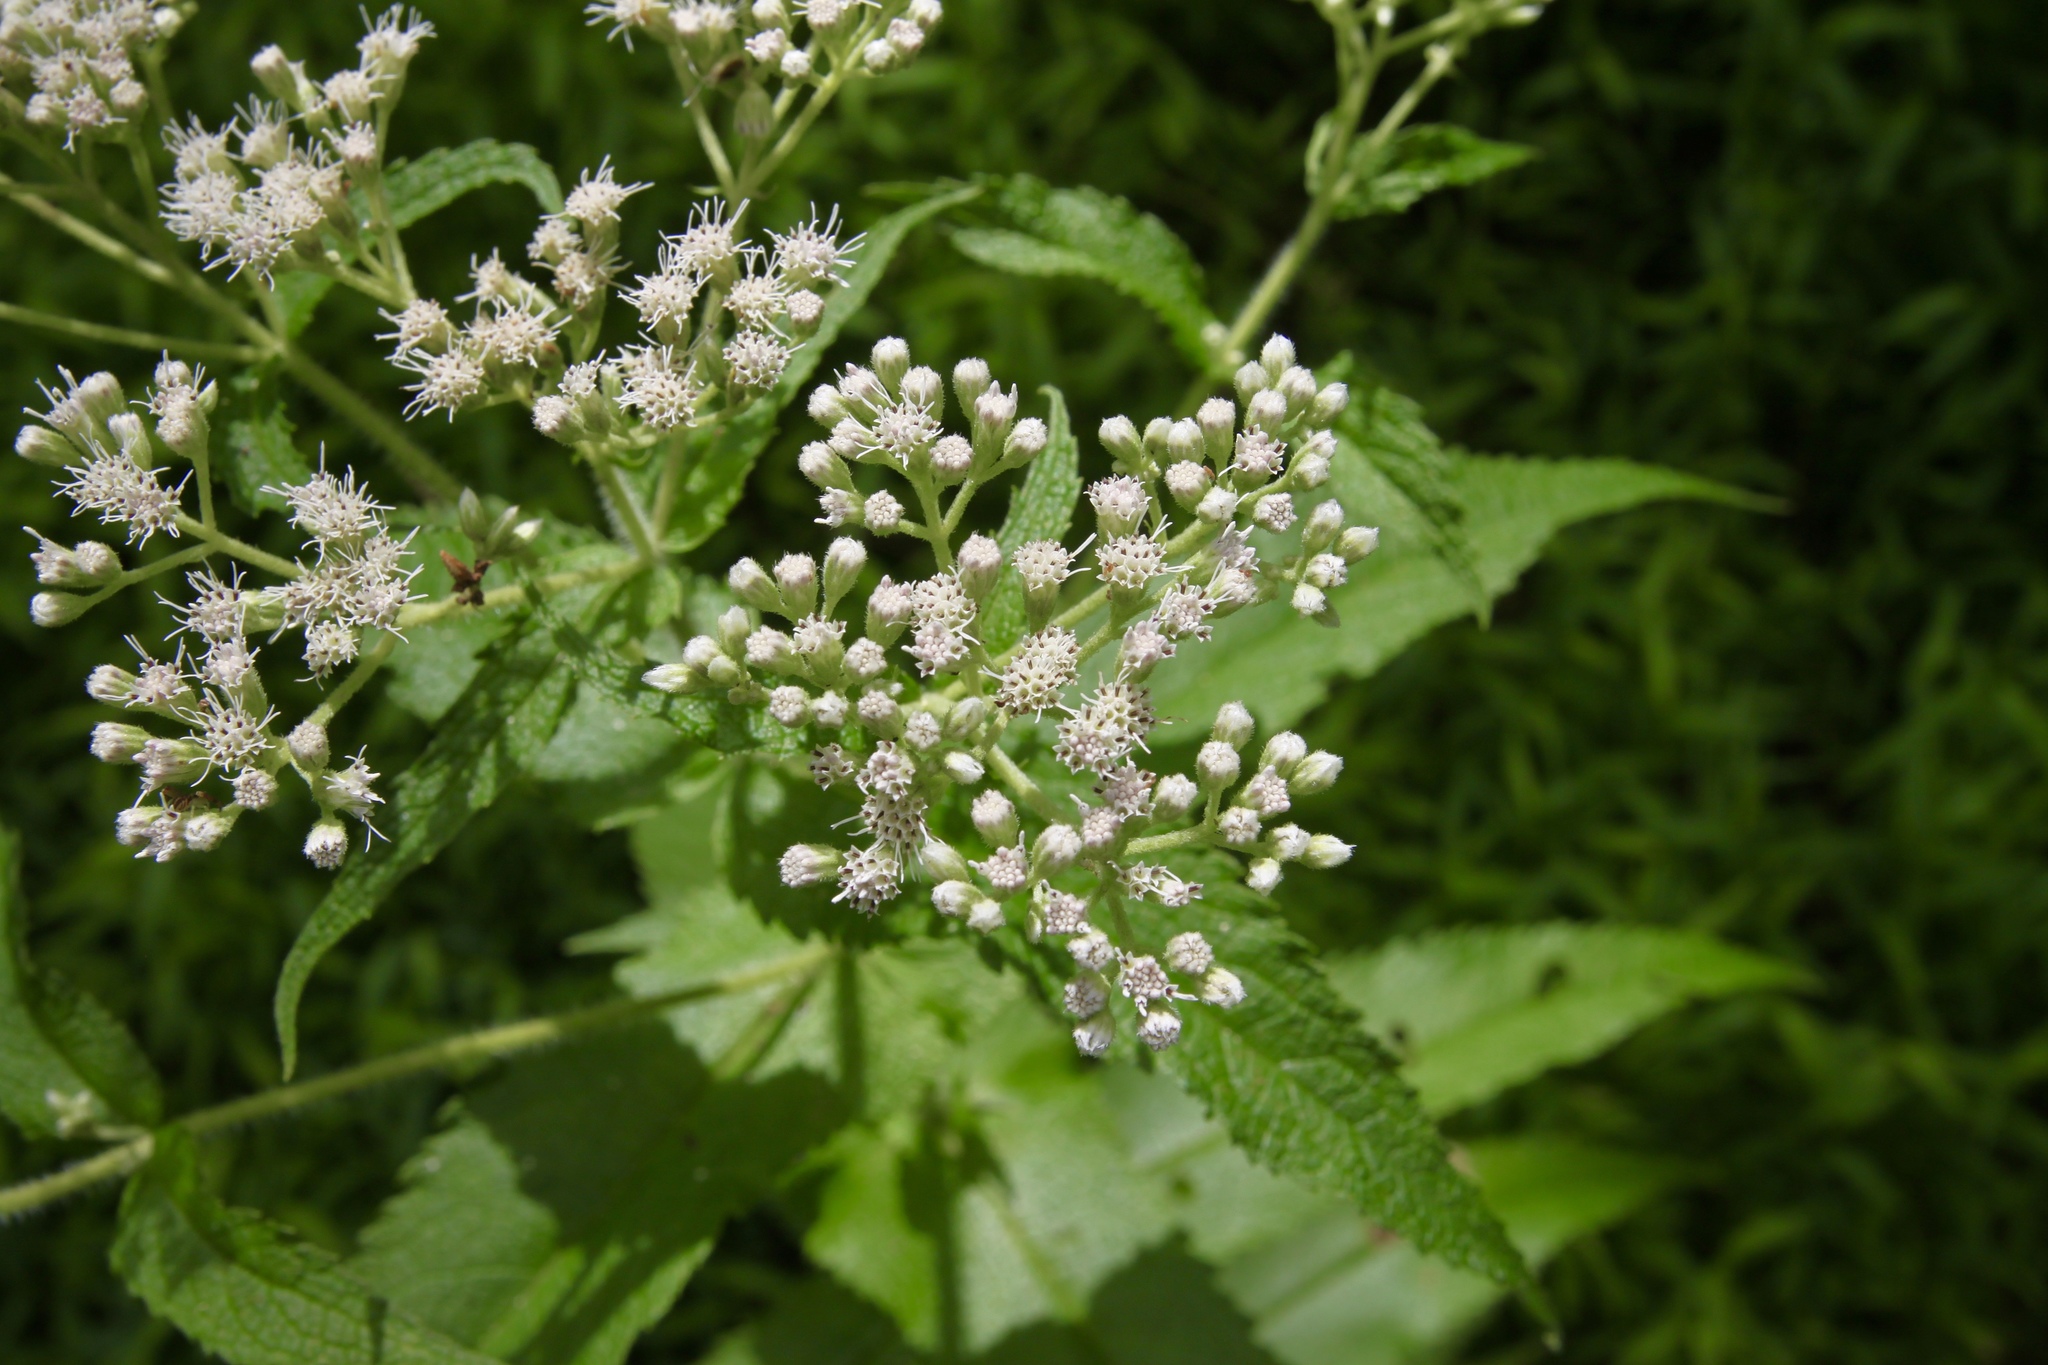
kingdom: Plantae
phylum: Tracheophyta
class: Magnoliopsida
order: Asterales
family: Asteraceae
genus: Eupatorium
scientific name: Eupatorium perfoliatum
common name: Boneset
